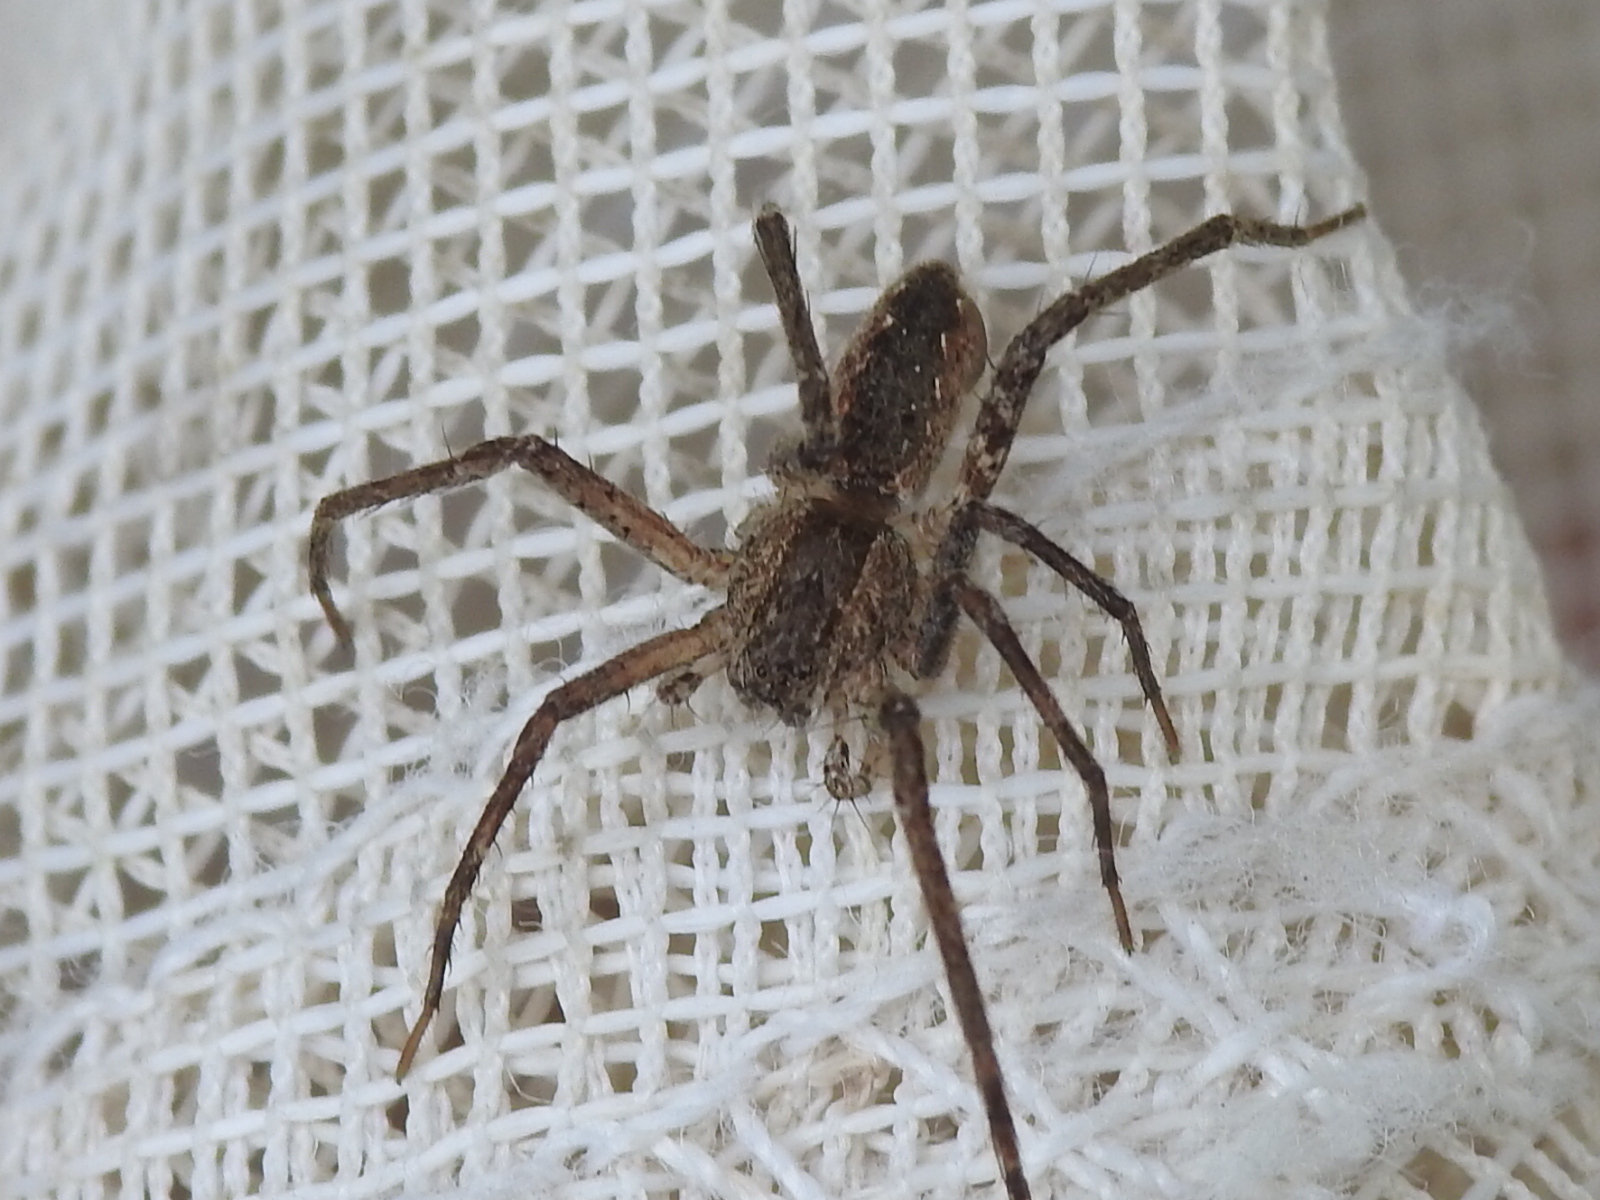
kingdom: Animalia
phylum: Arthropoda
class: Arachnida
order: Araneae
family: Pisauridae
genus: Pisaurina
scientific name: Pisaurina mira
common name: American nursery web spider
